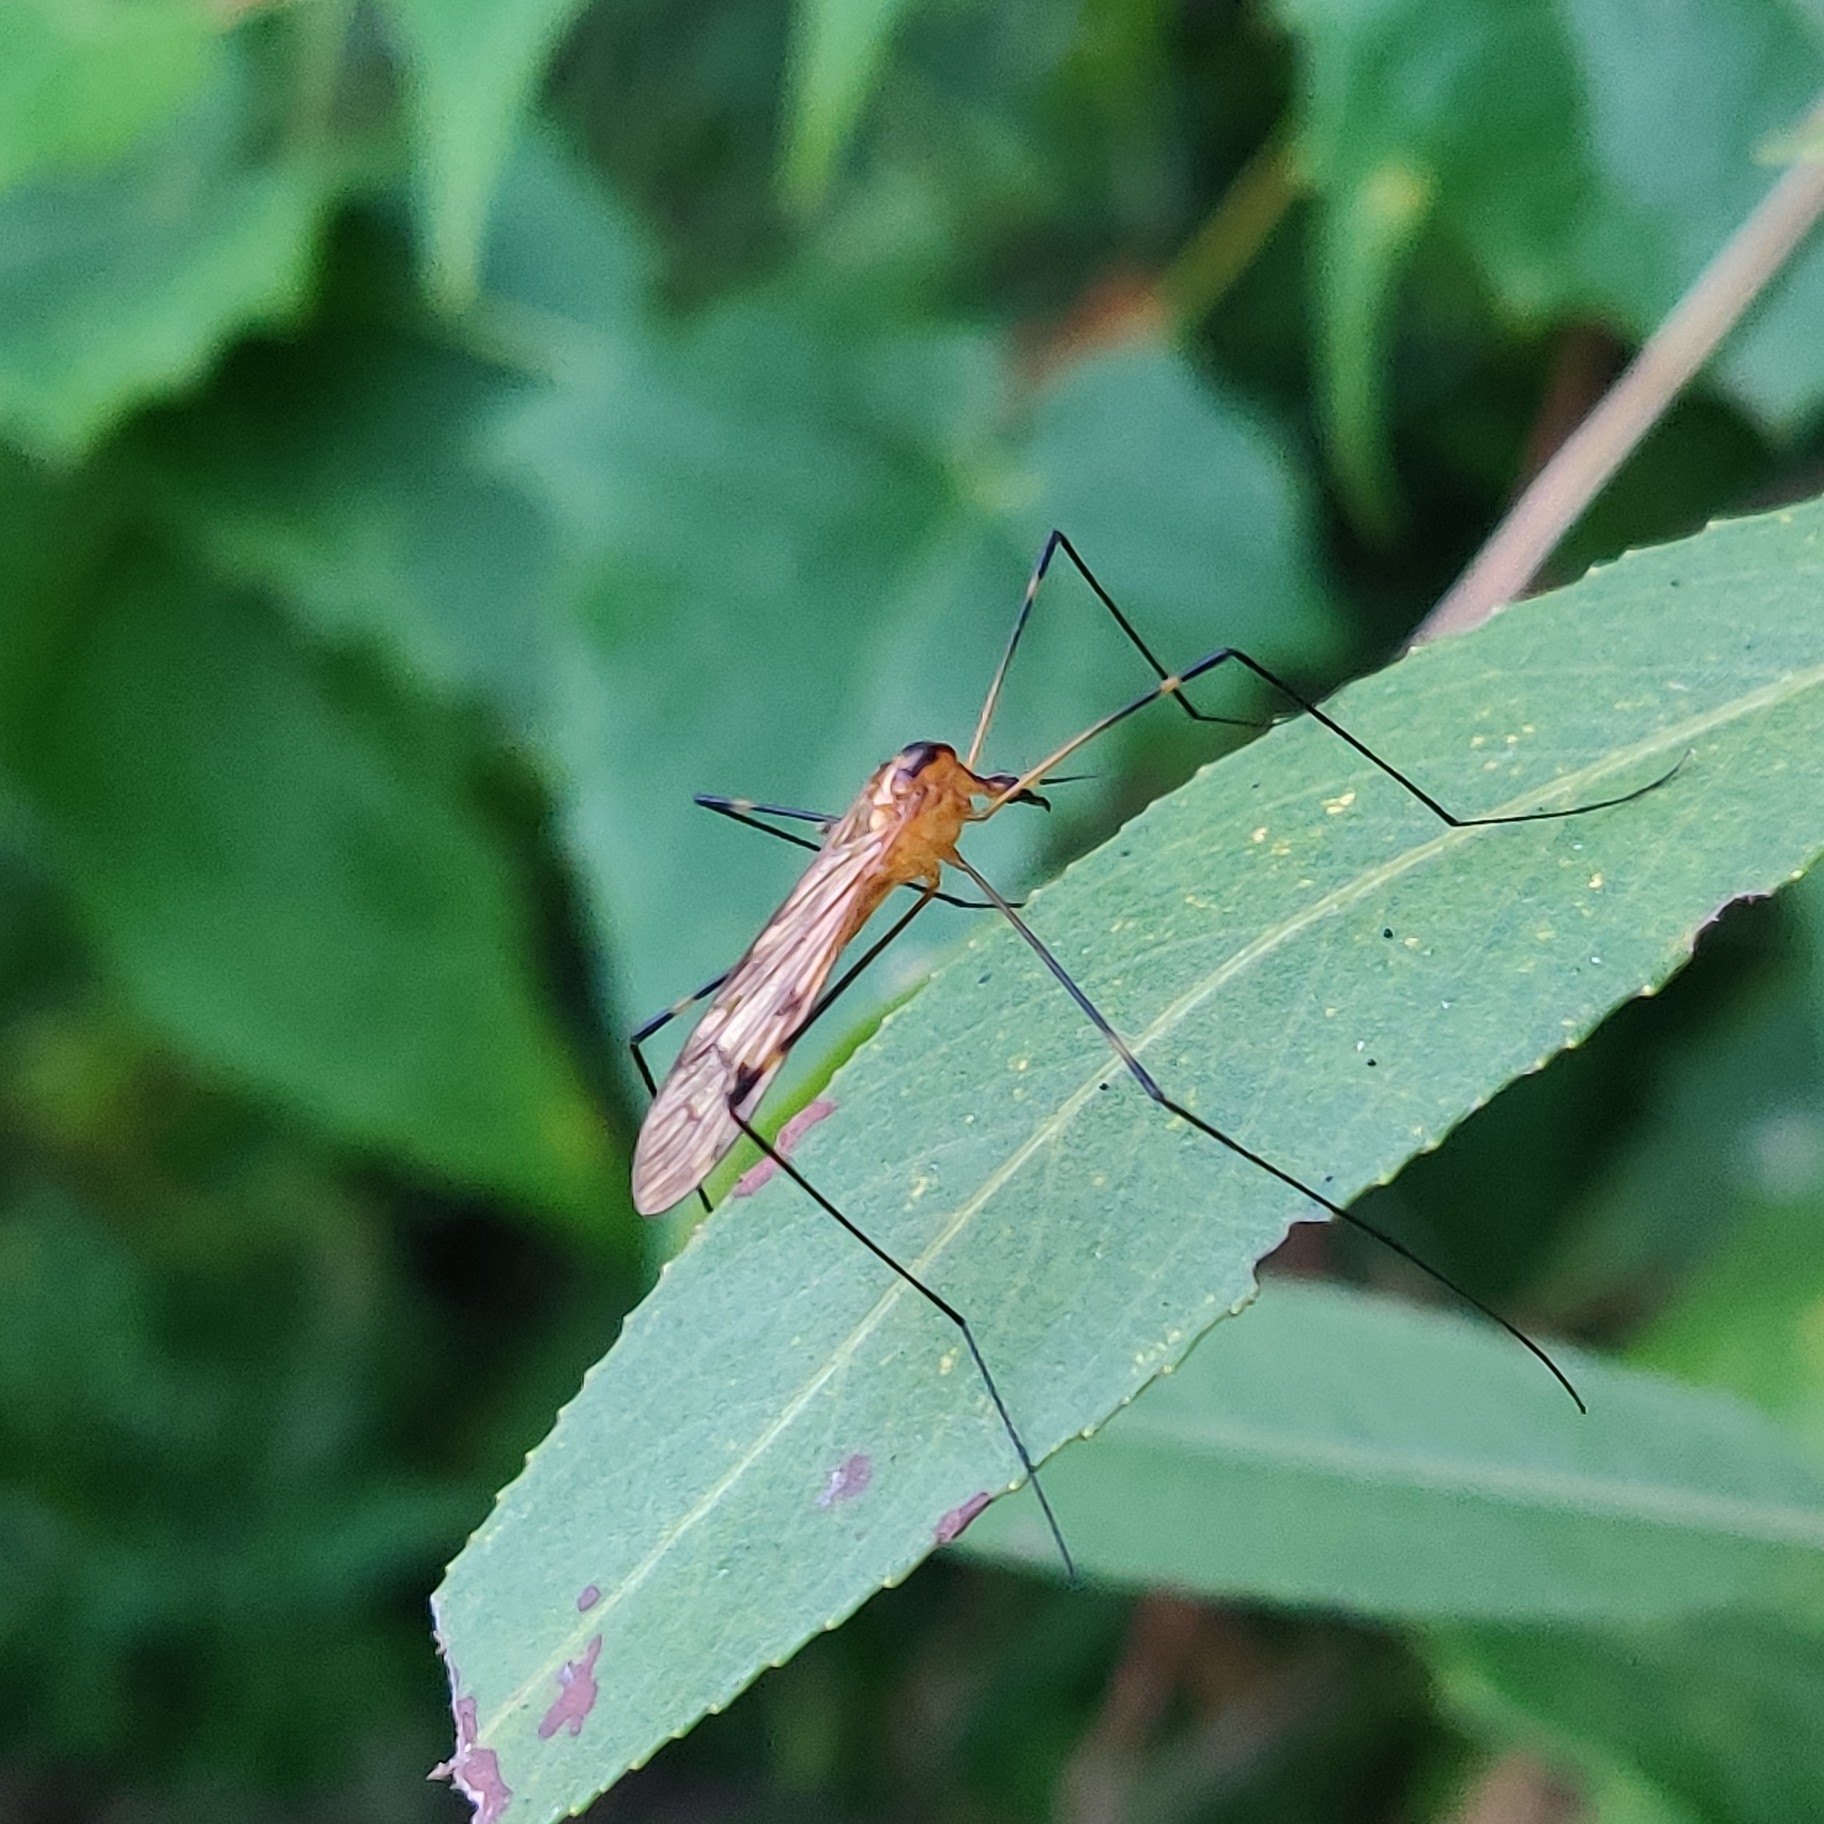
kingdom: Animalia
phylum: Arthropoda
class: Insecta
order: Diptera
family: Limoniidae
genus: Metalimnobia
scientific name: Metalimnobia xanthopteroides
